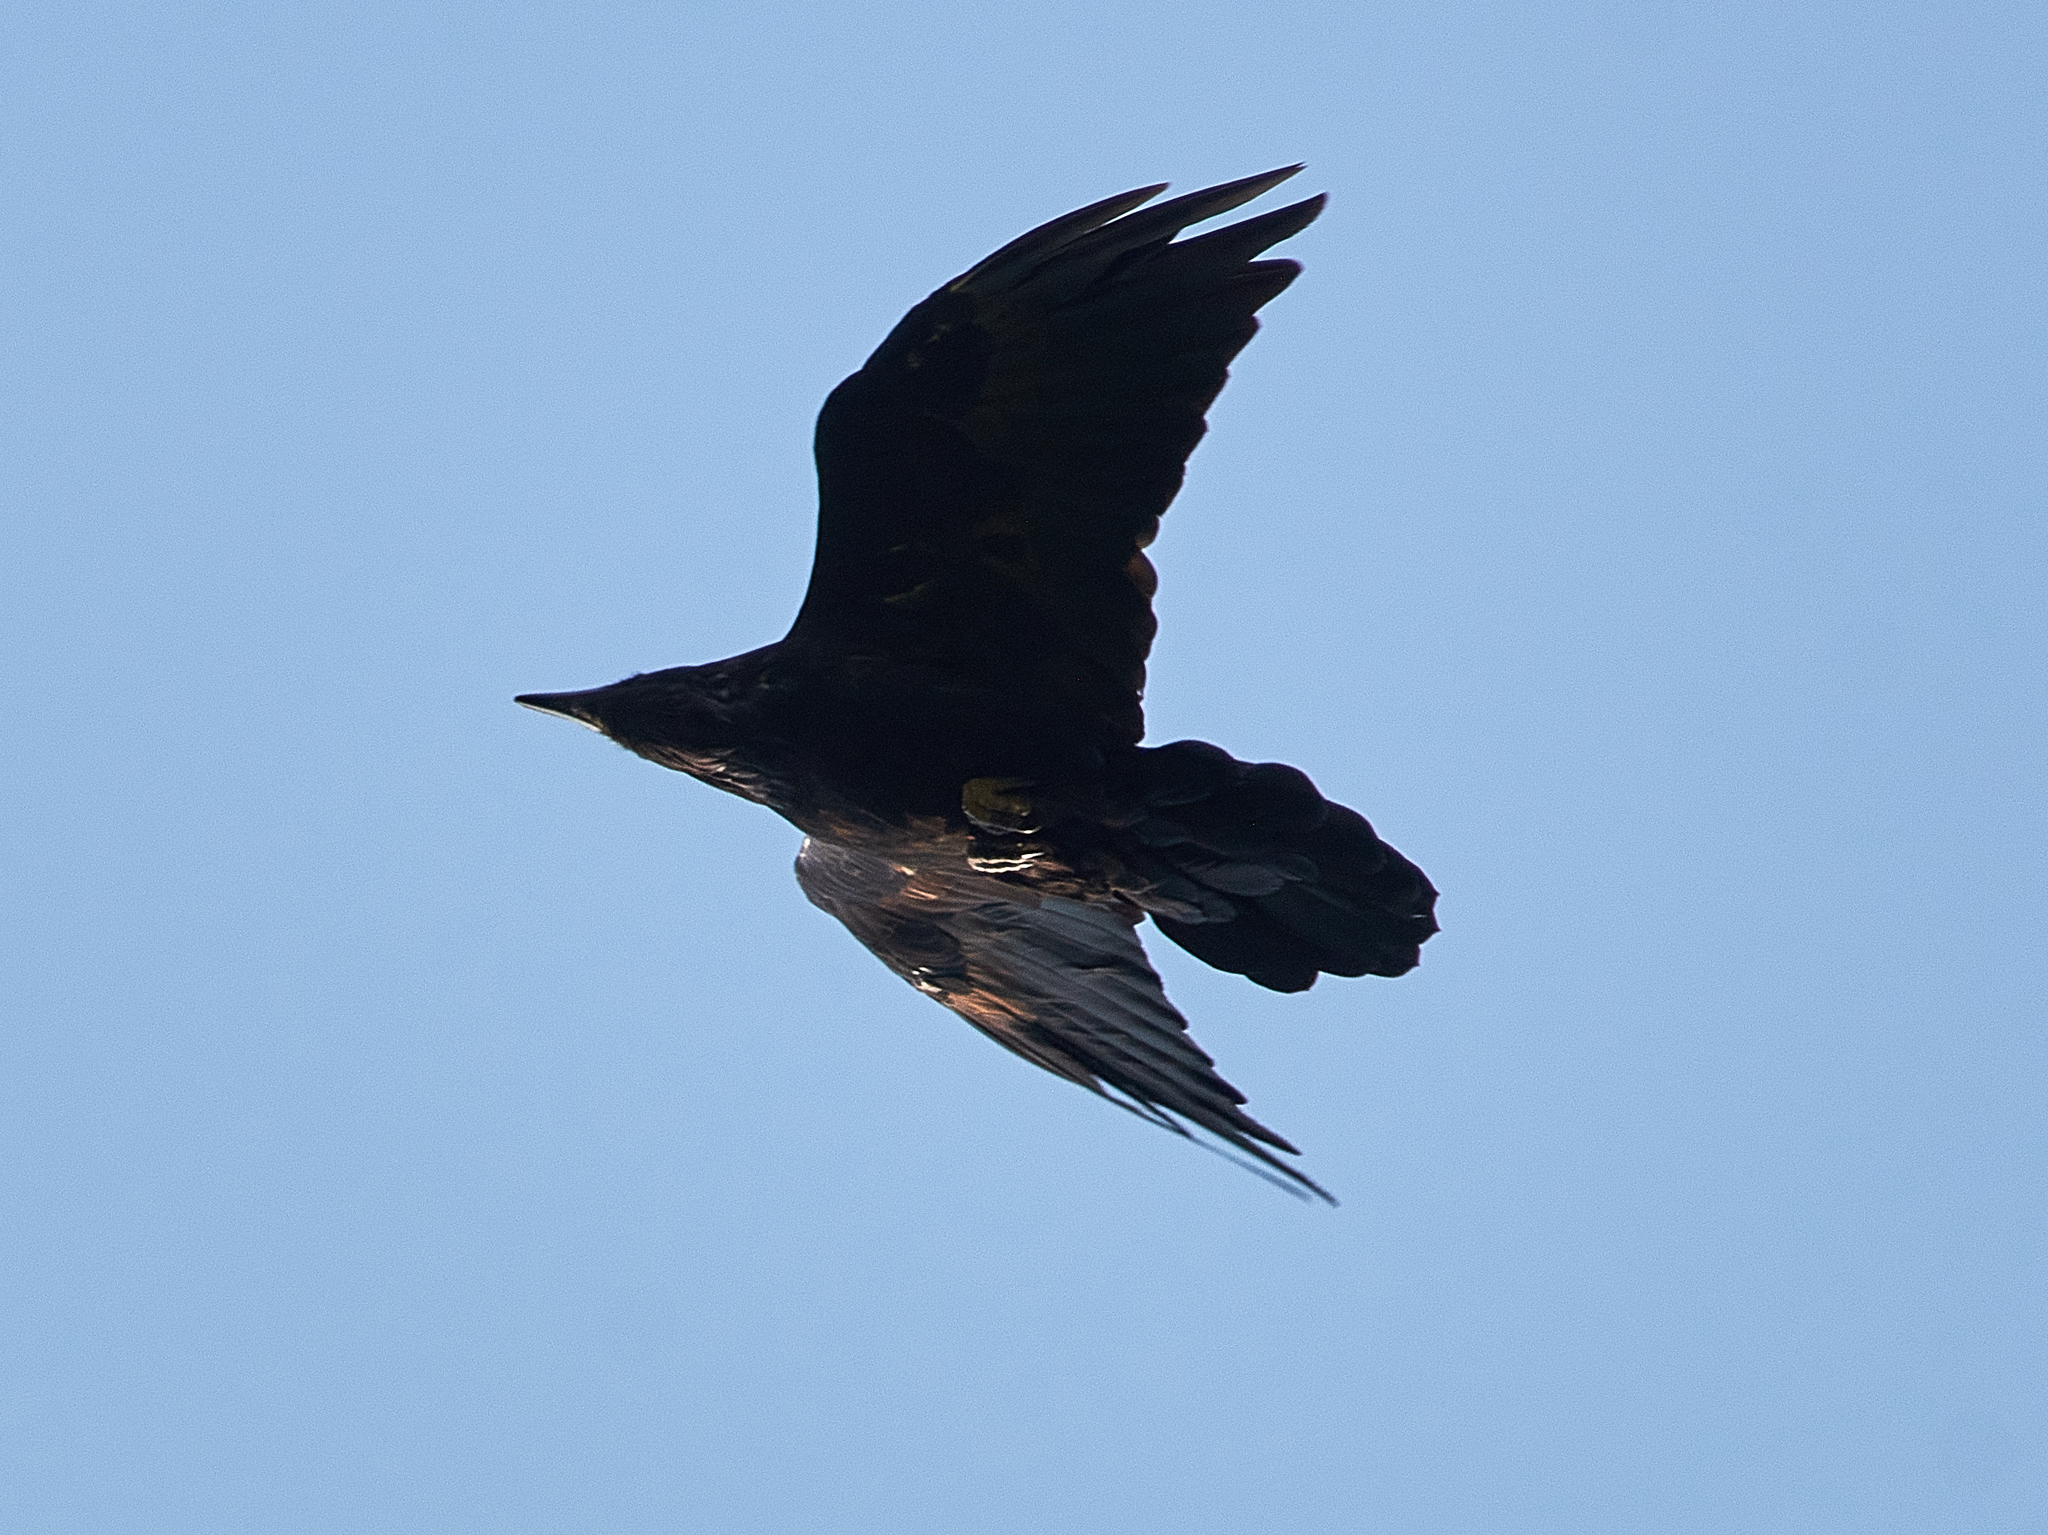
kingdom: Animalia
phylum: Chordata
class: Aves
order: Passeriformes
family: Corvidae
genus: Corvus
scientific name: Corvus corax
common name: Common raven
